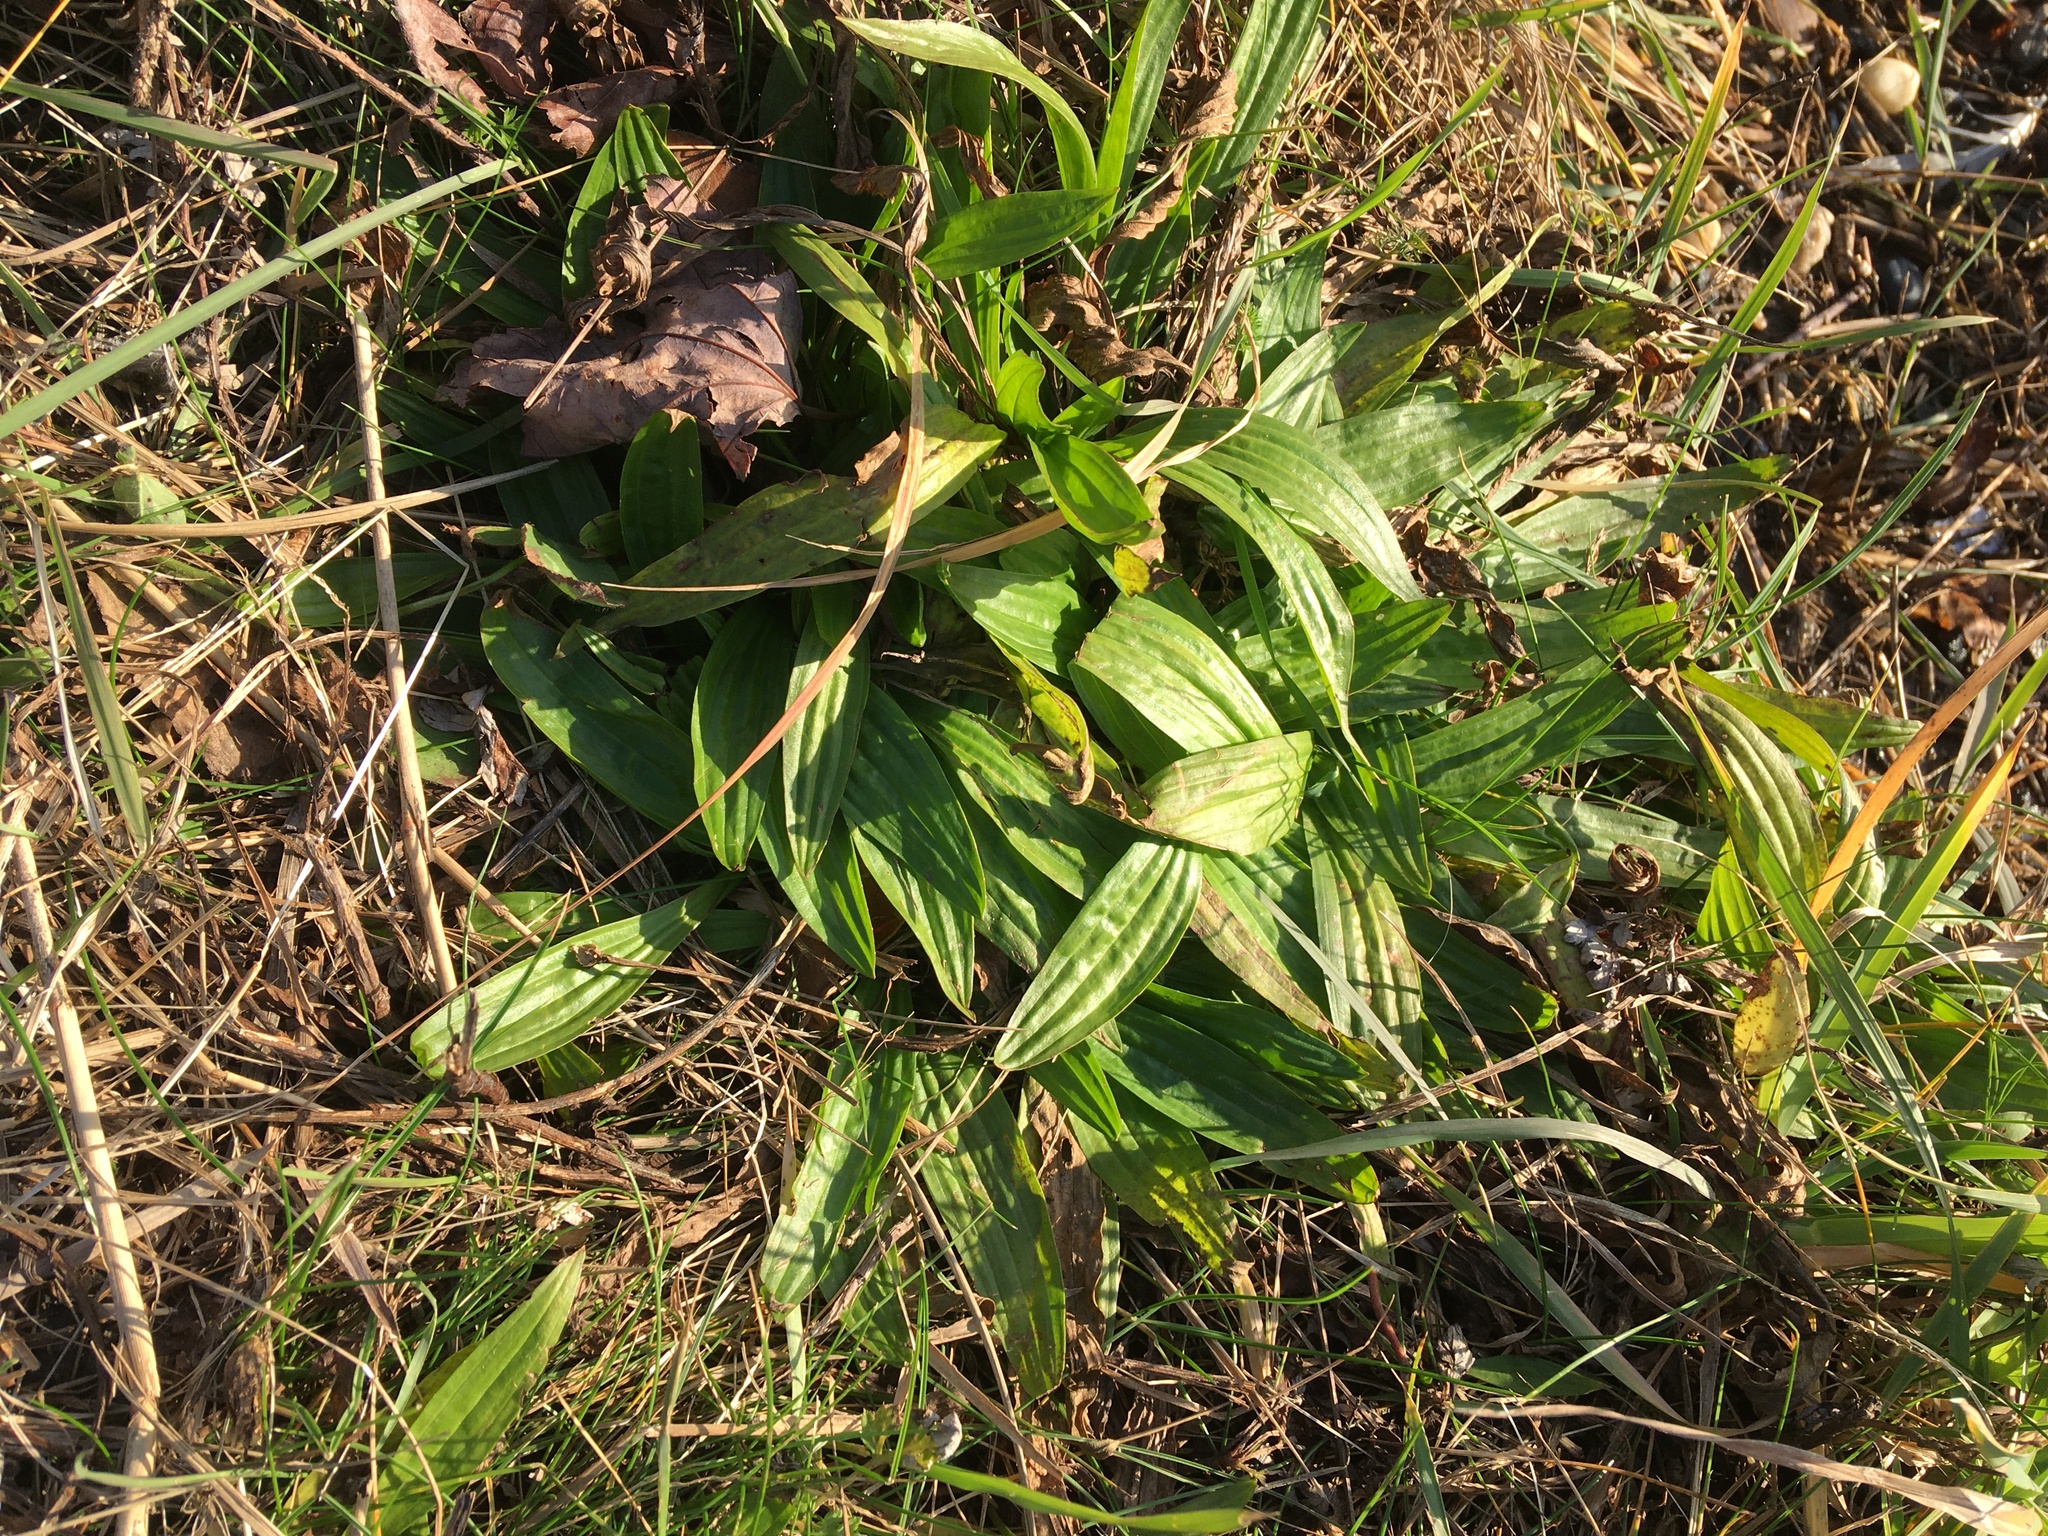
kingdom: Plantae
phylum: Tracheophyta
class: Magnoliopsida
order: Lamiales
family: Plantaginaceae
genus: Plantago
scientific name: Plantago lanceolata
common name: Ribwort plantain
